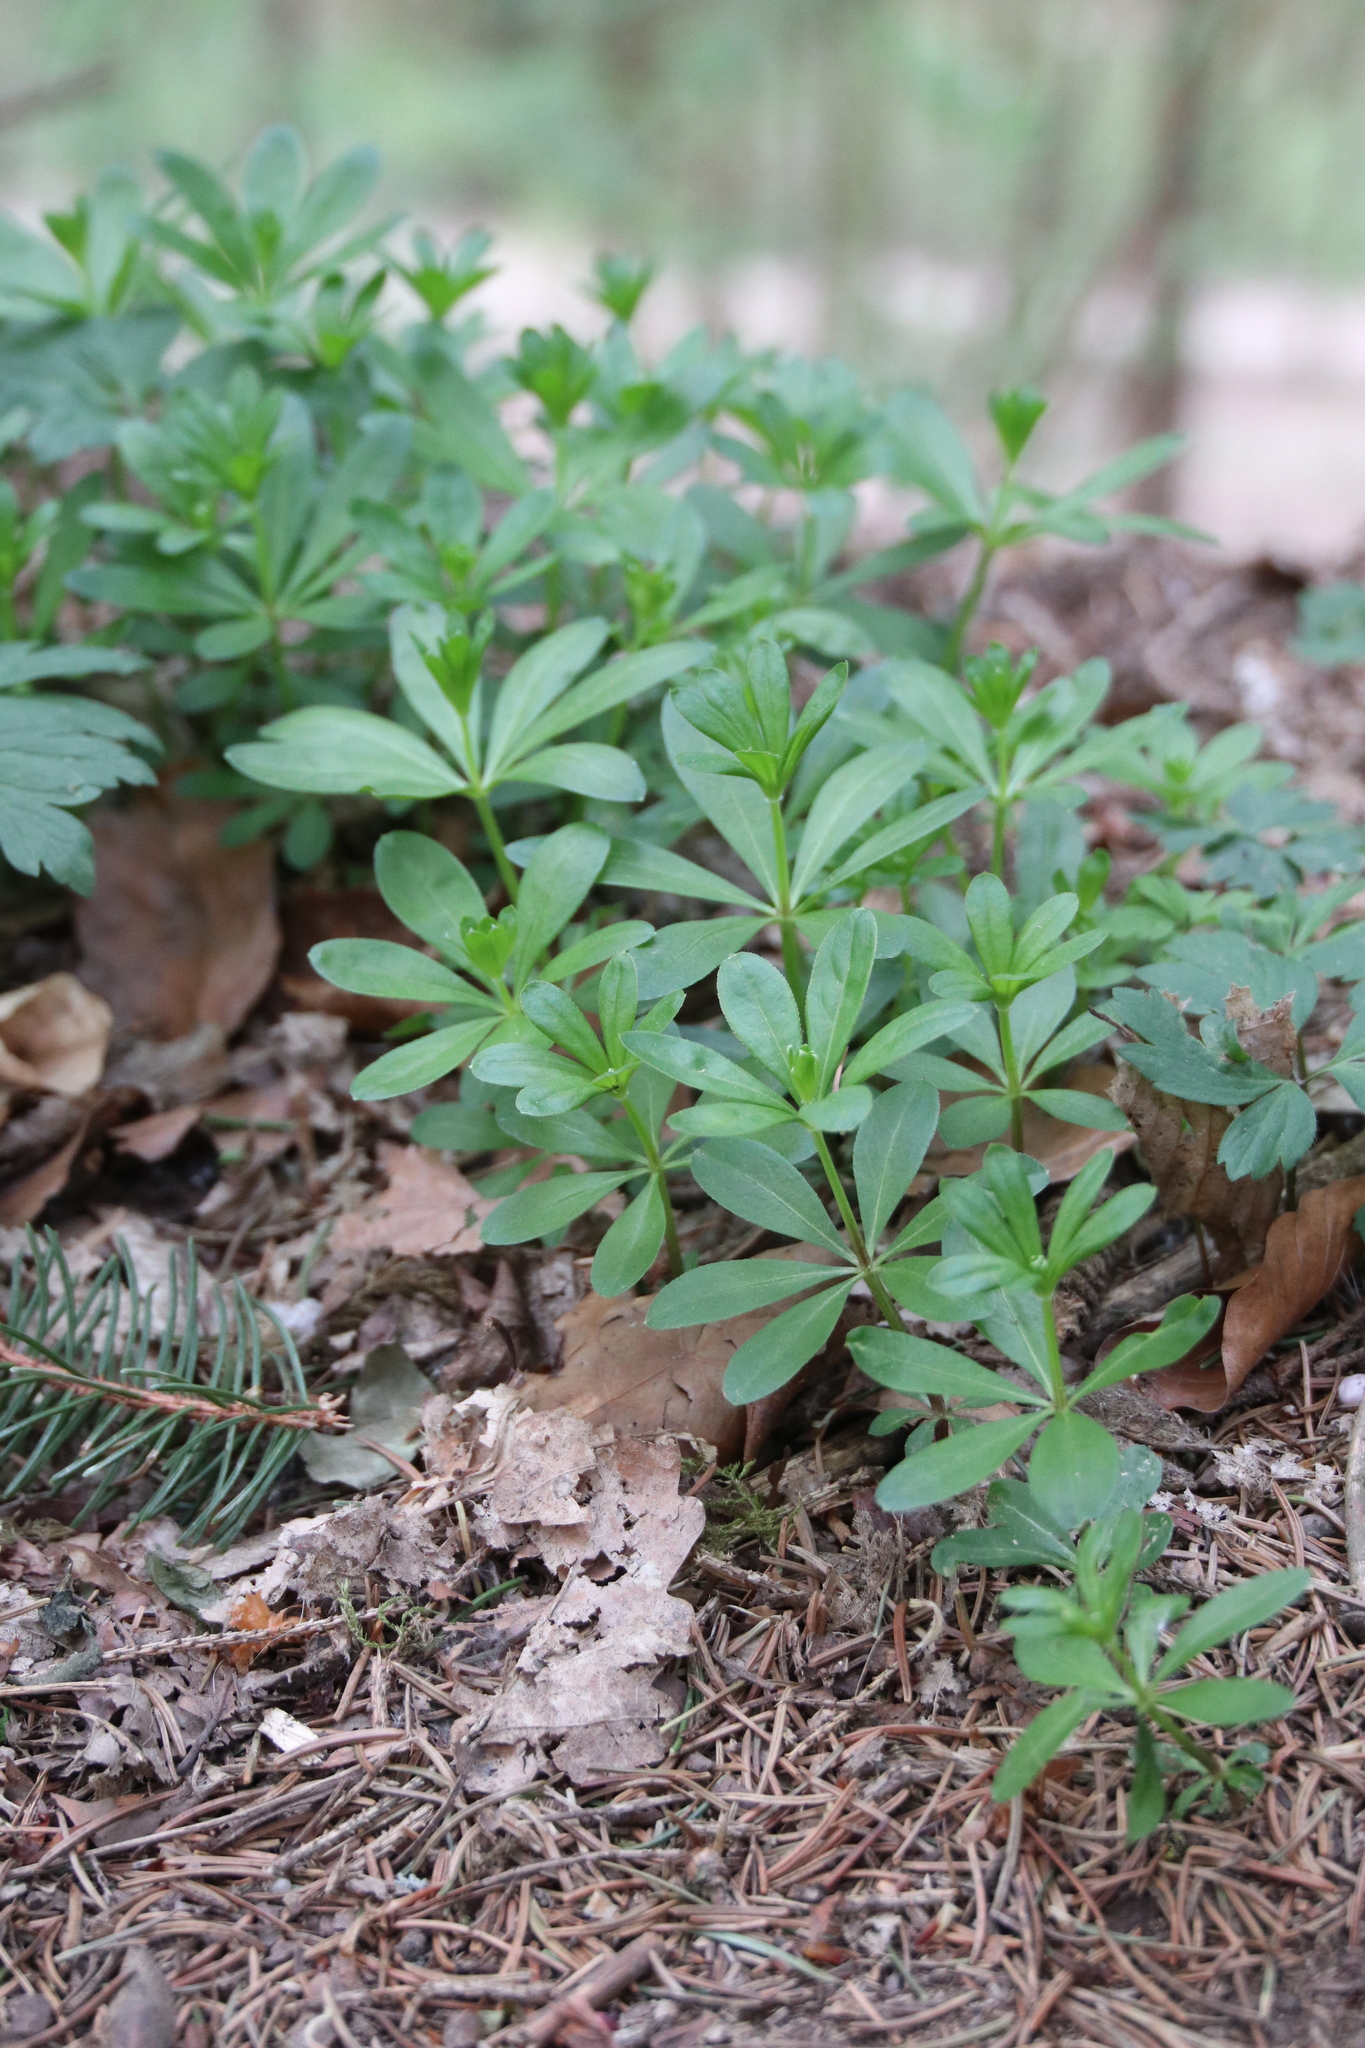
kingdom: Plantae
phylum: Tracheophyta
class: Magnoliopsida
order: Gentianales
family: Rubiaceae
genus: Galium
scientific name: Galium odoratum
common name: Sweet woodruff
